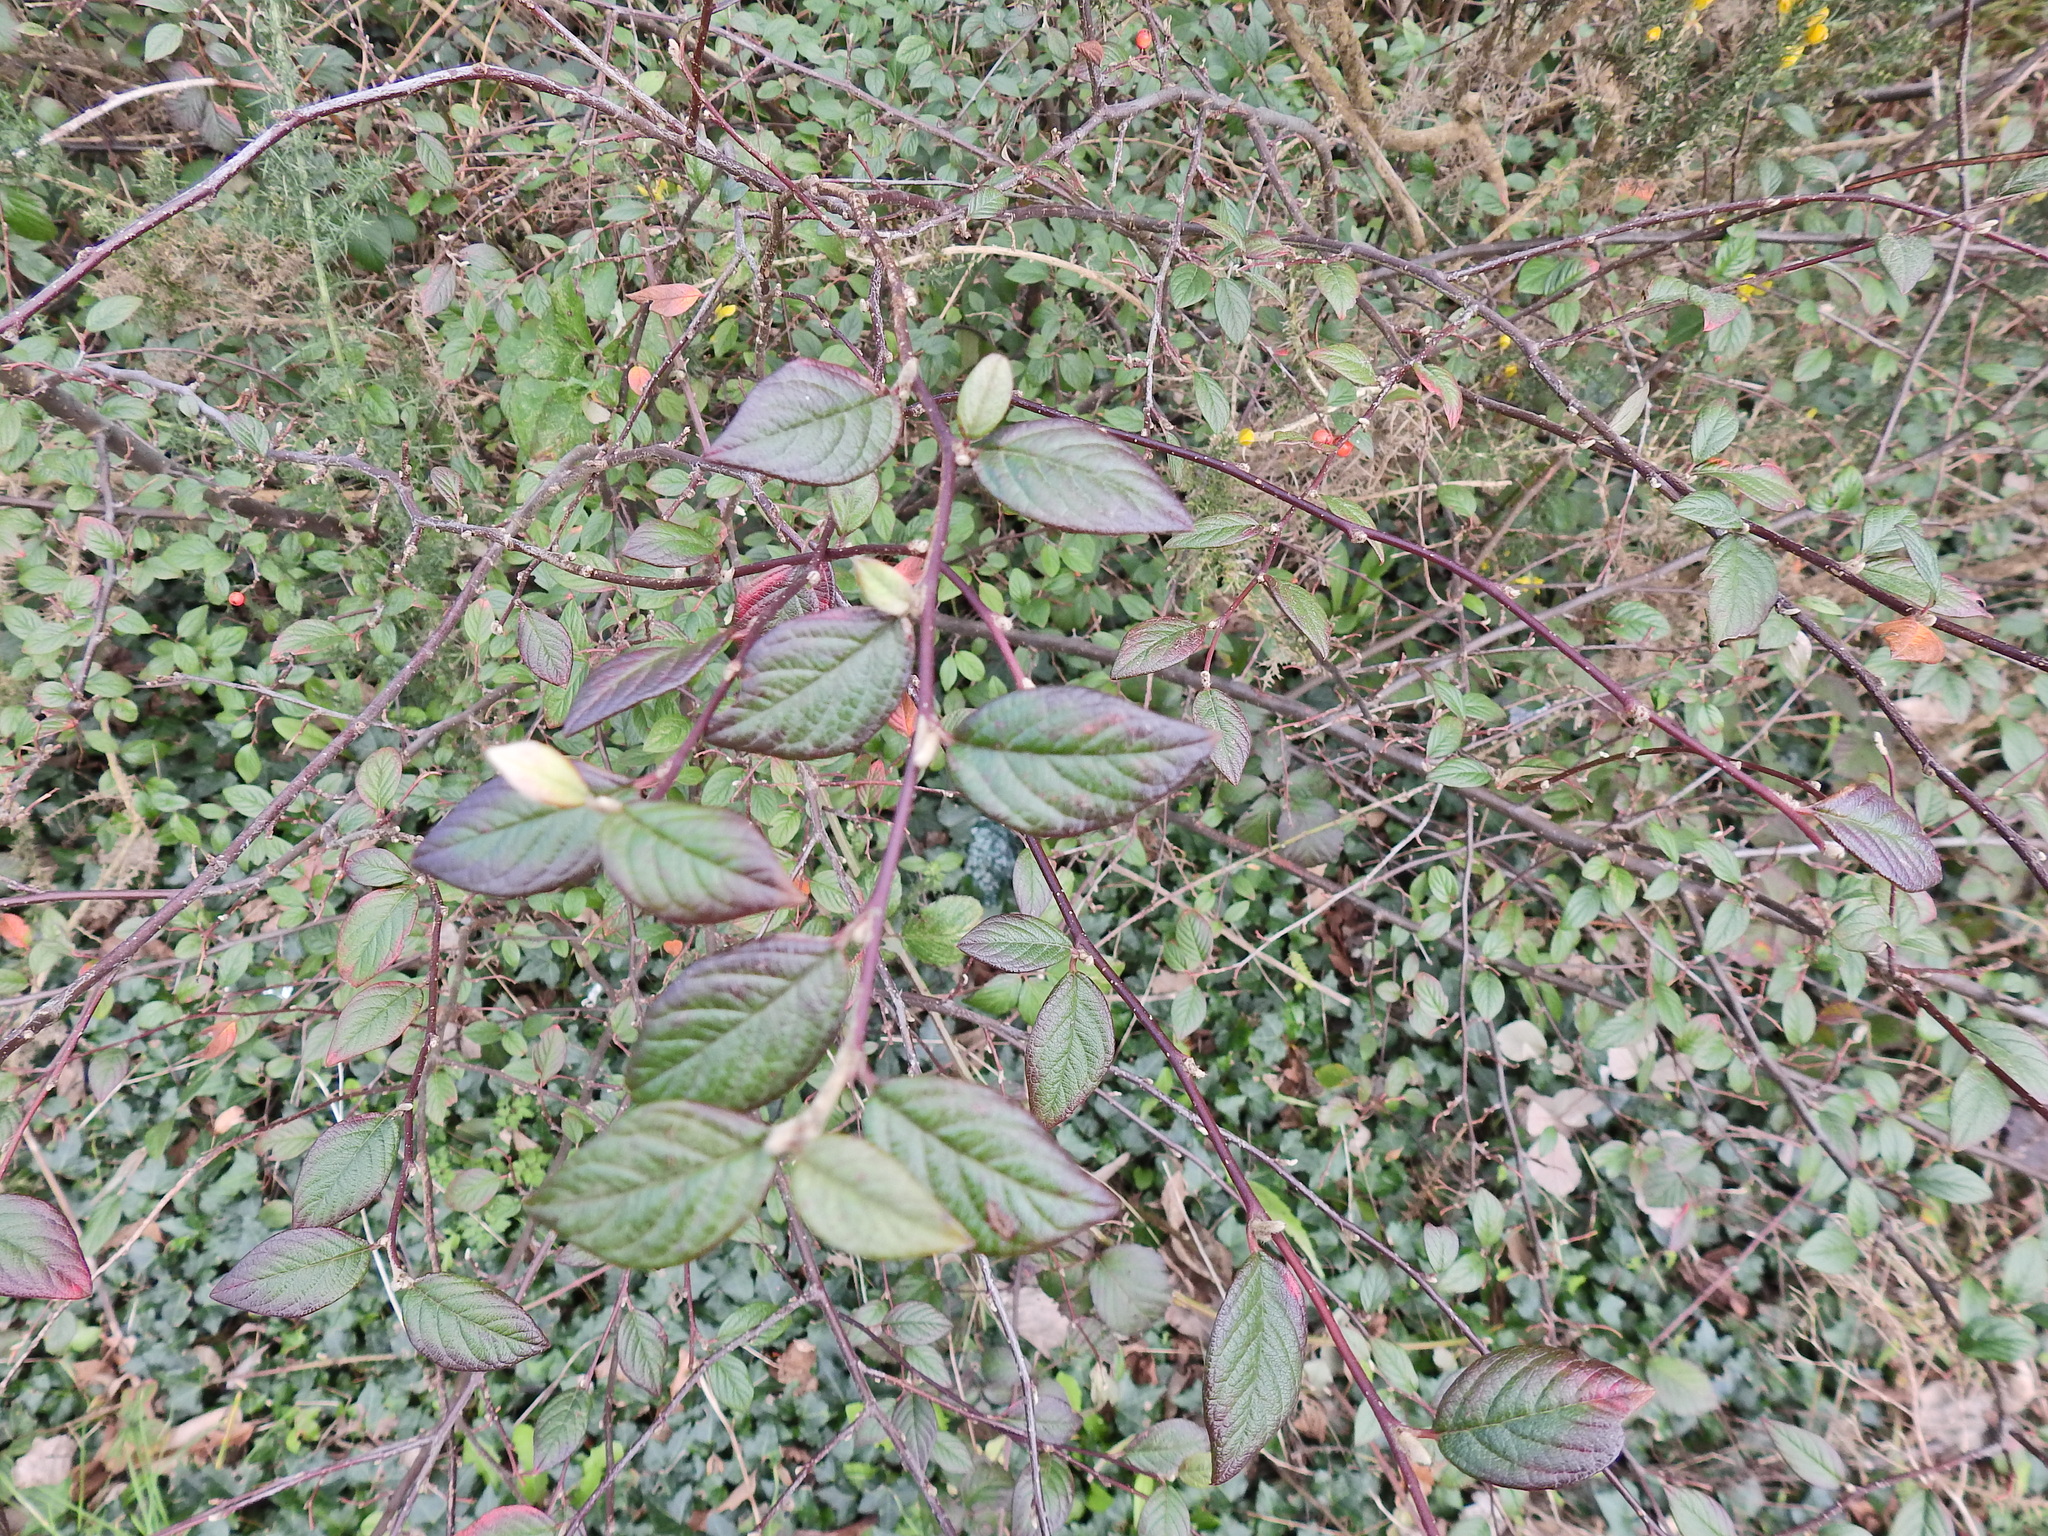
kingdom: Plantae
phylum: Tracheophyta
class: Magnoliopsida
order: Rosales
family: Rosaceae
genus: Cotoneaster
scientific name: Cotoneaster franchetii
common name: Franchet's cotoneaster
